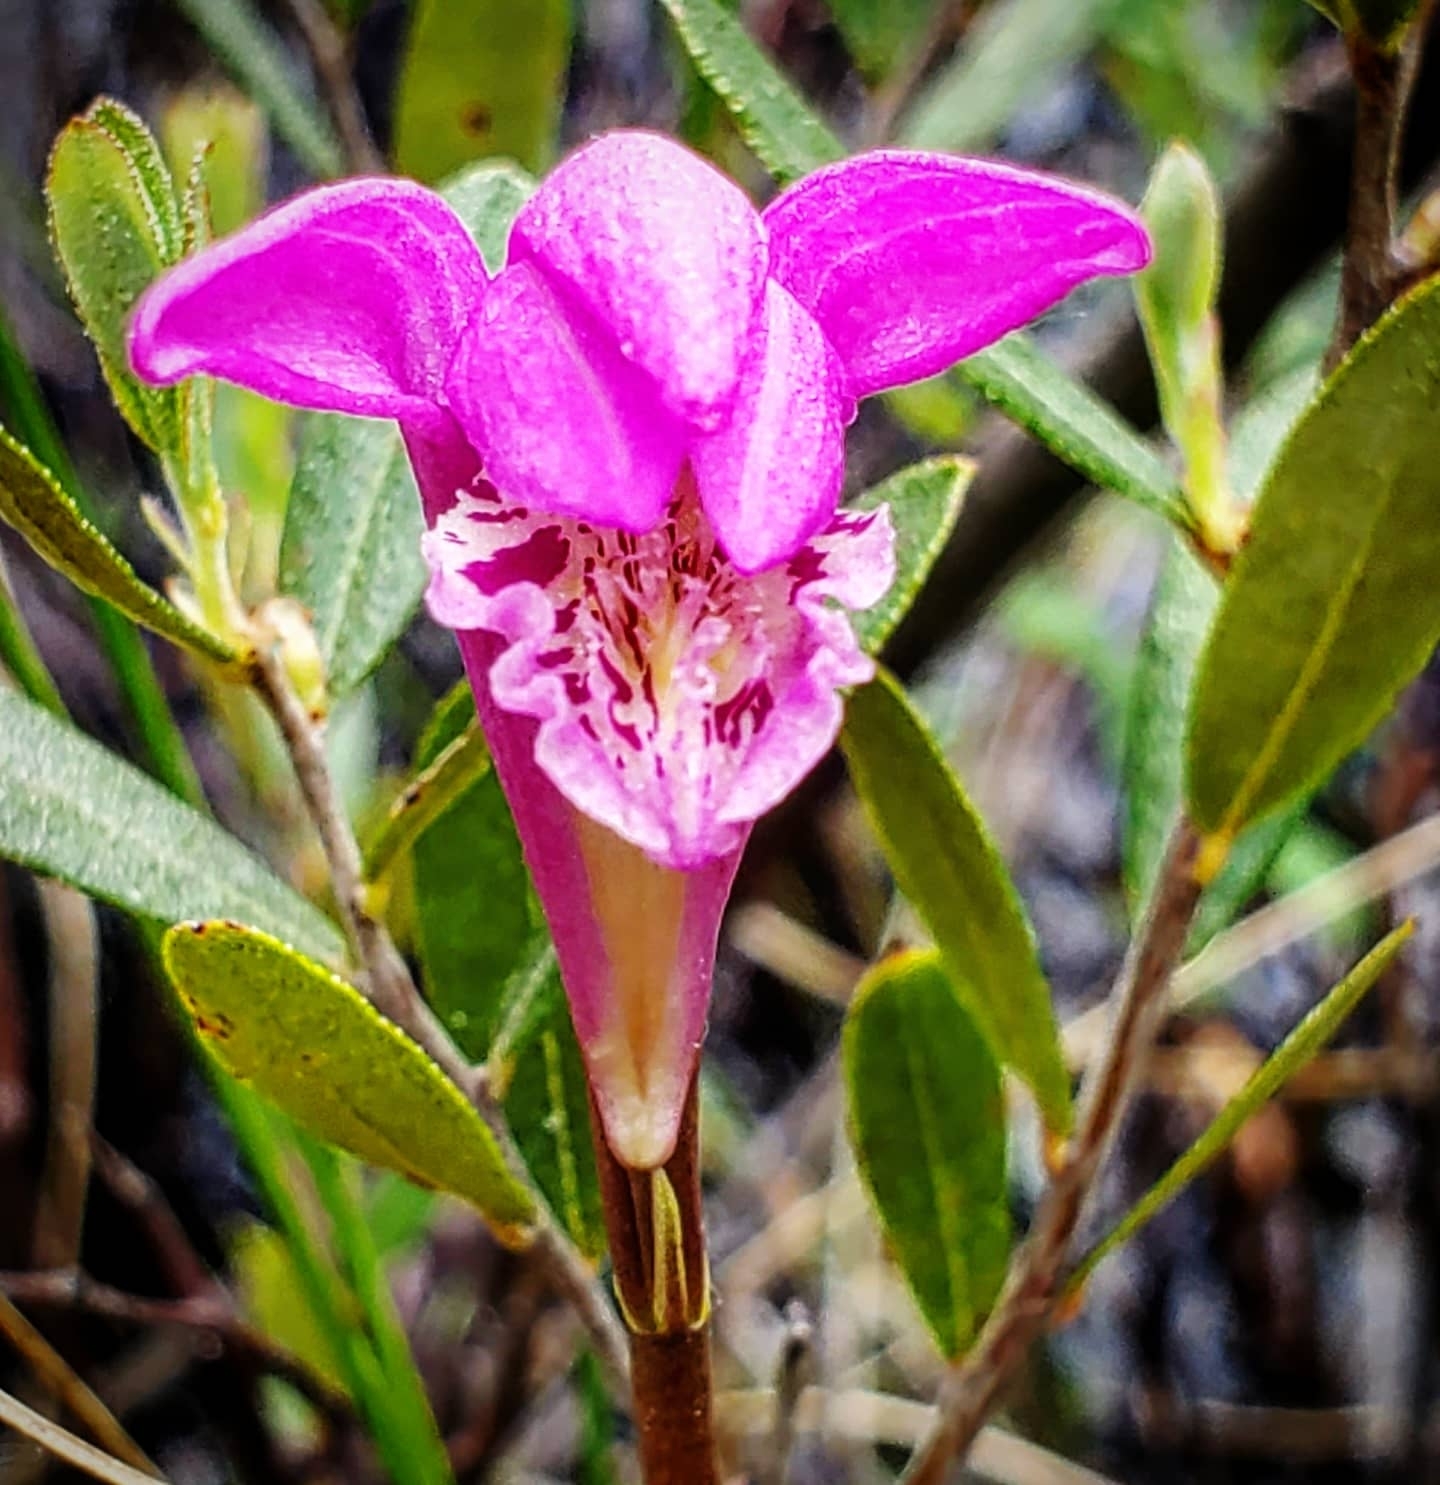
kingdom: Plantae
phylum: Tracheophyta
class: Liliopsida
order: Asparagales
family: Orchidaceae
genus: Arethusa
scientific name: Arethusa bulbosa
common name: Arethusa
